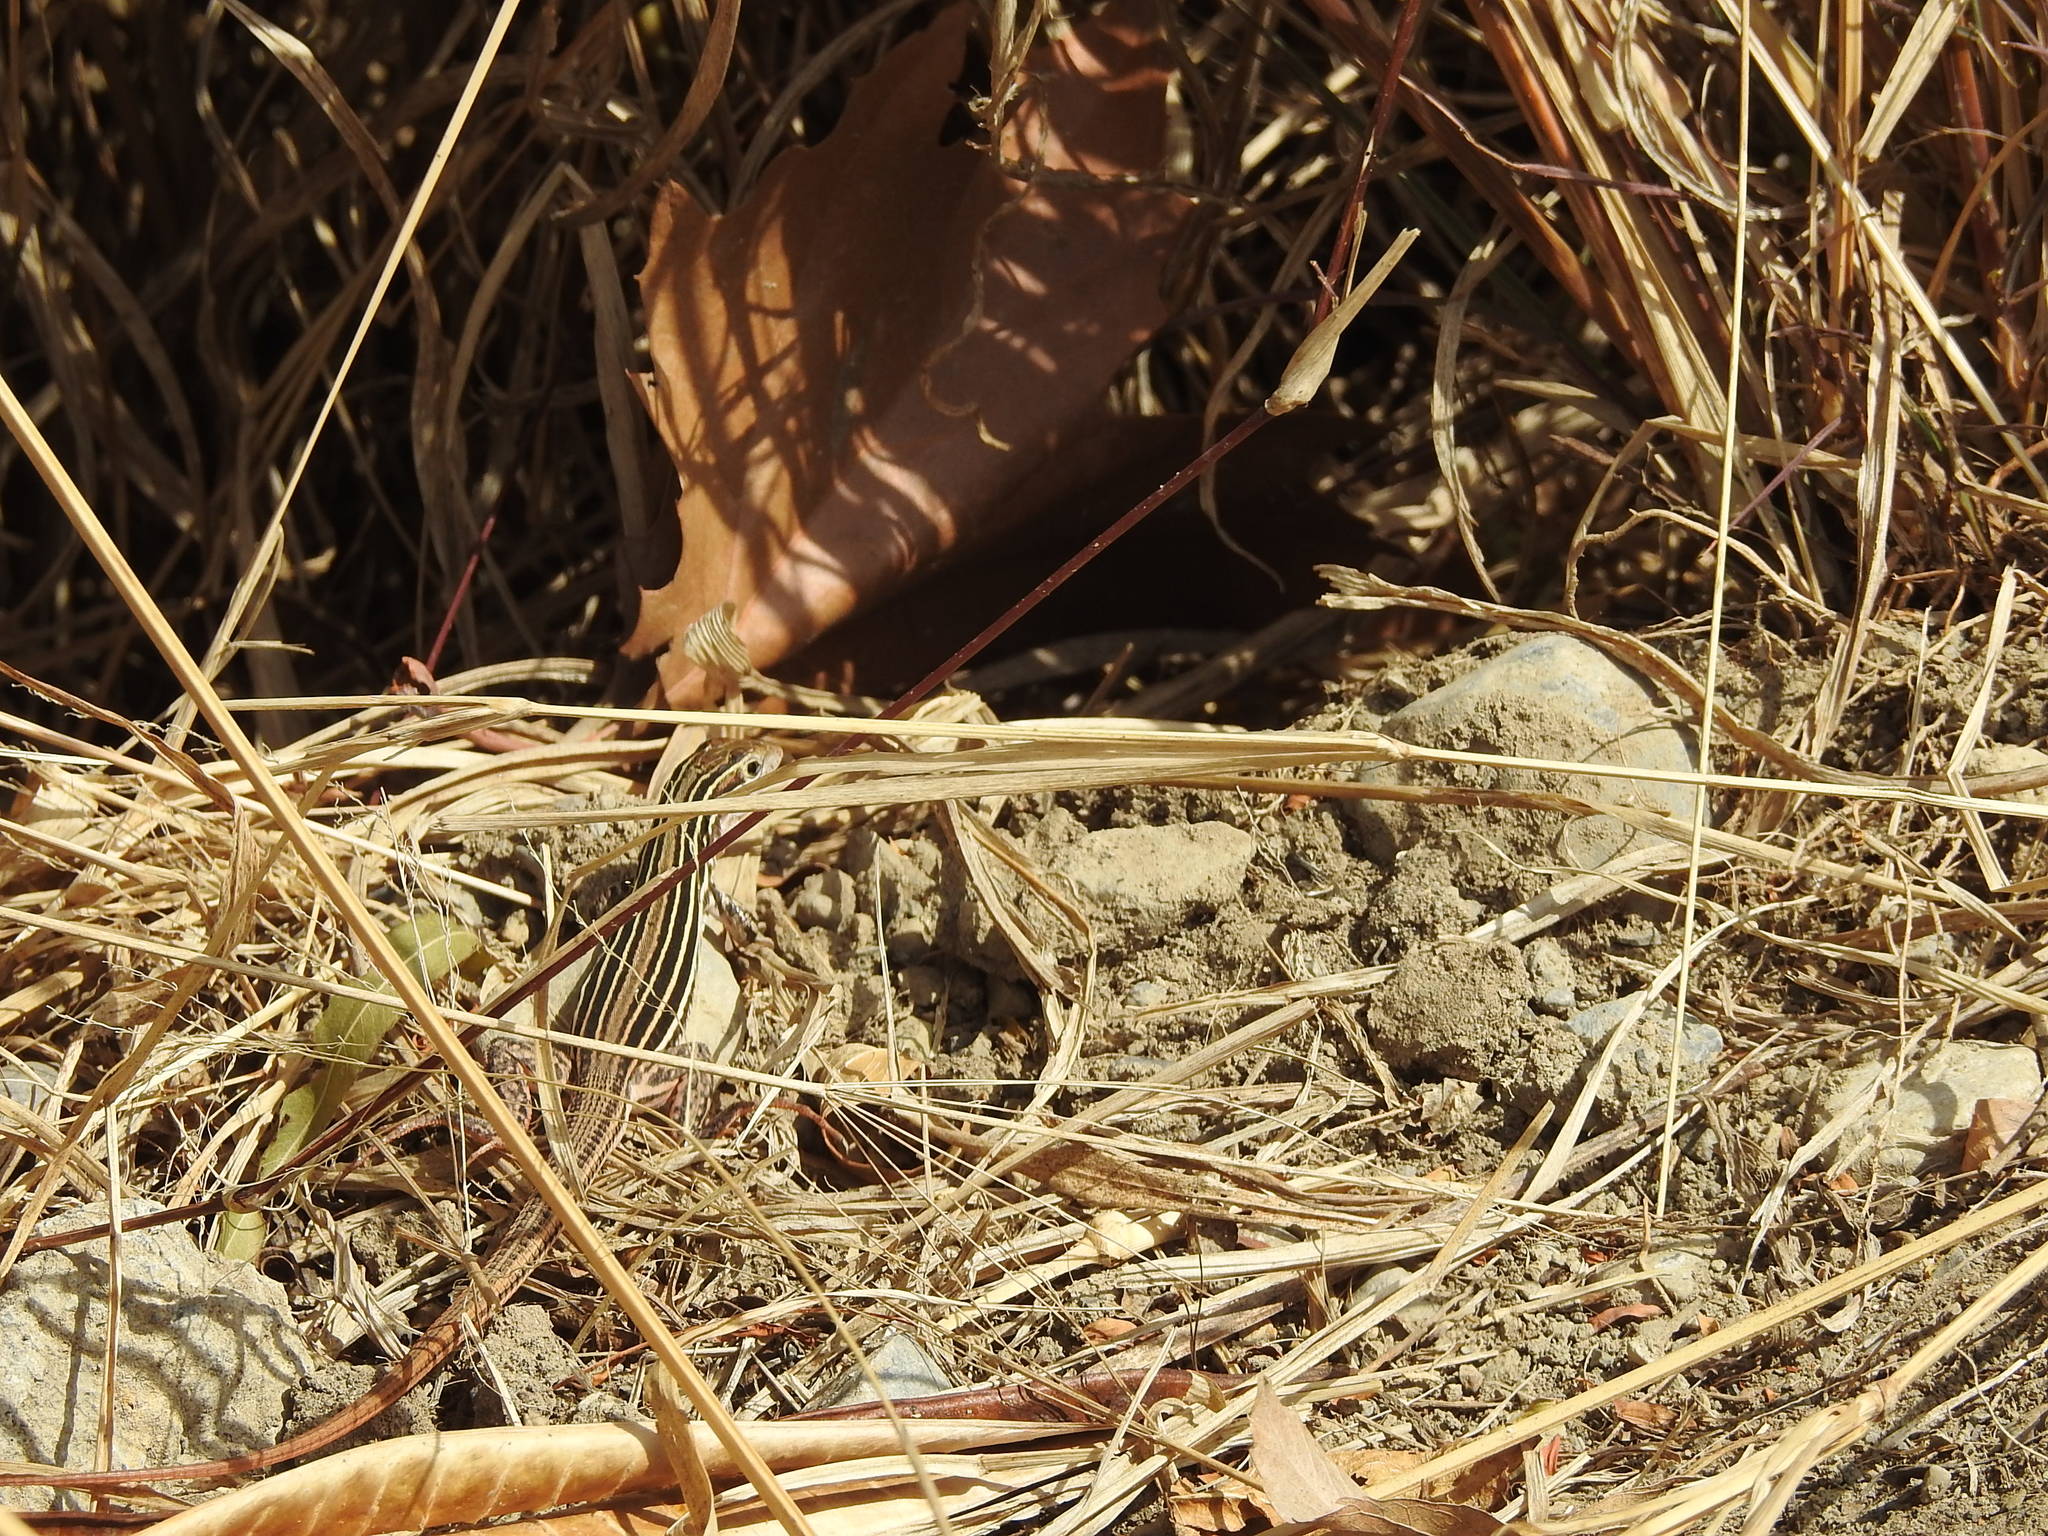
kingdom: Animalia
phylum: Chordata
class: Squamata
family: Teiidae
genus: Aspidoscelis
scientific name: Aspidoscelis gularis
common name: Eastern spotted whiptail
